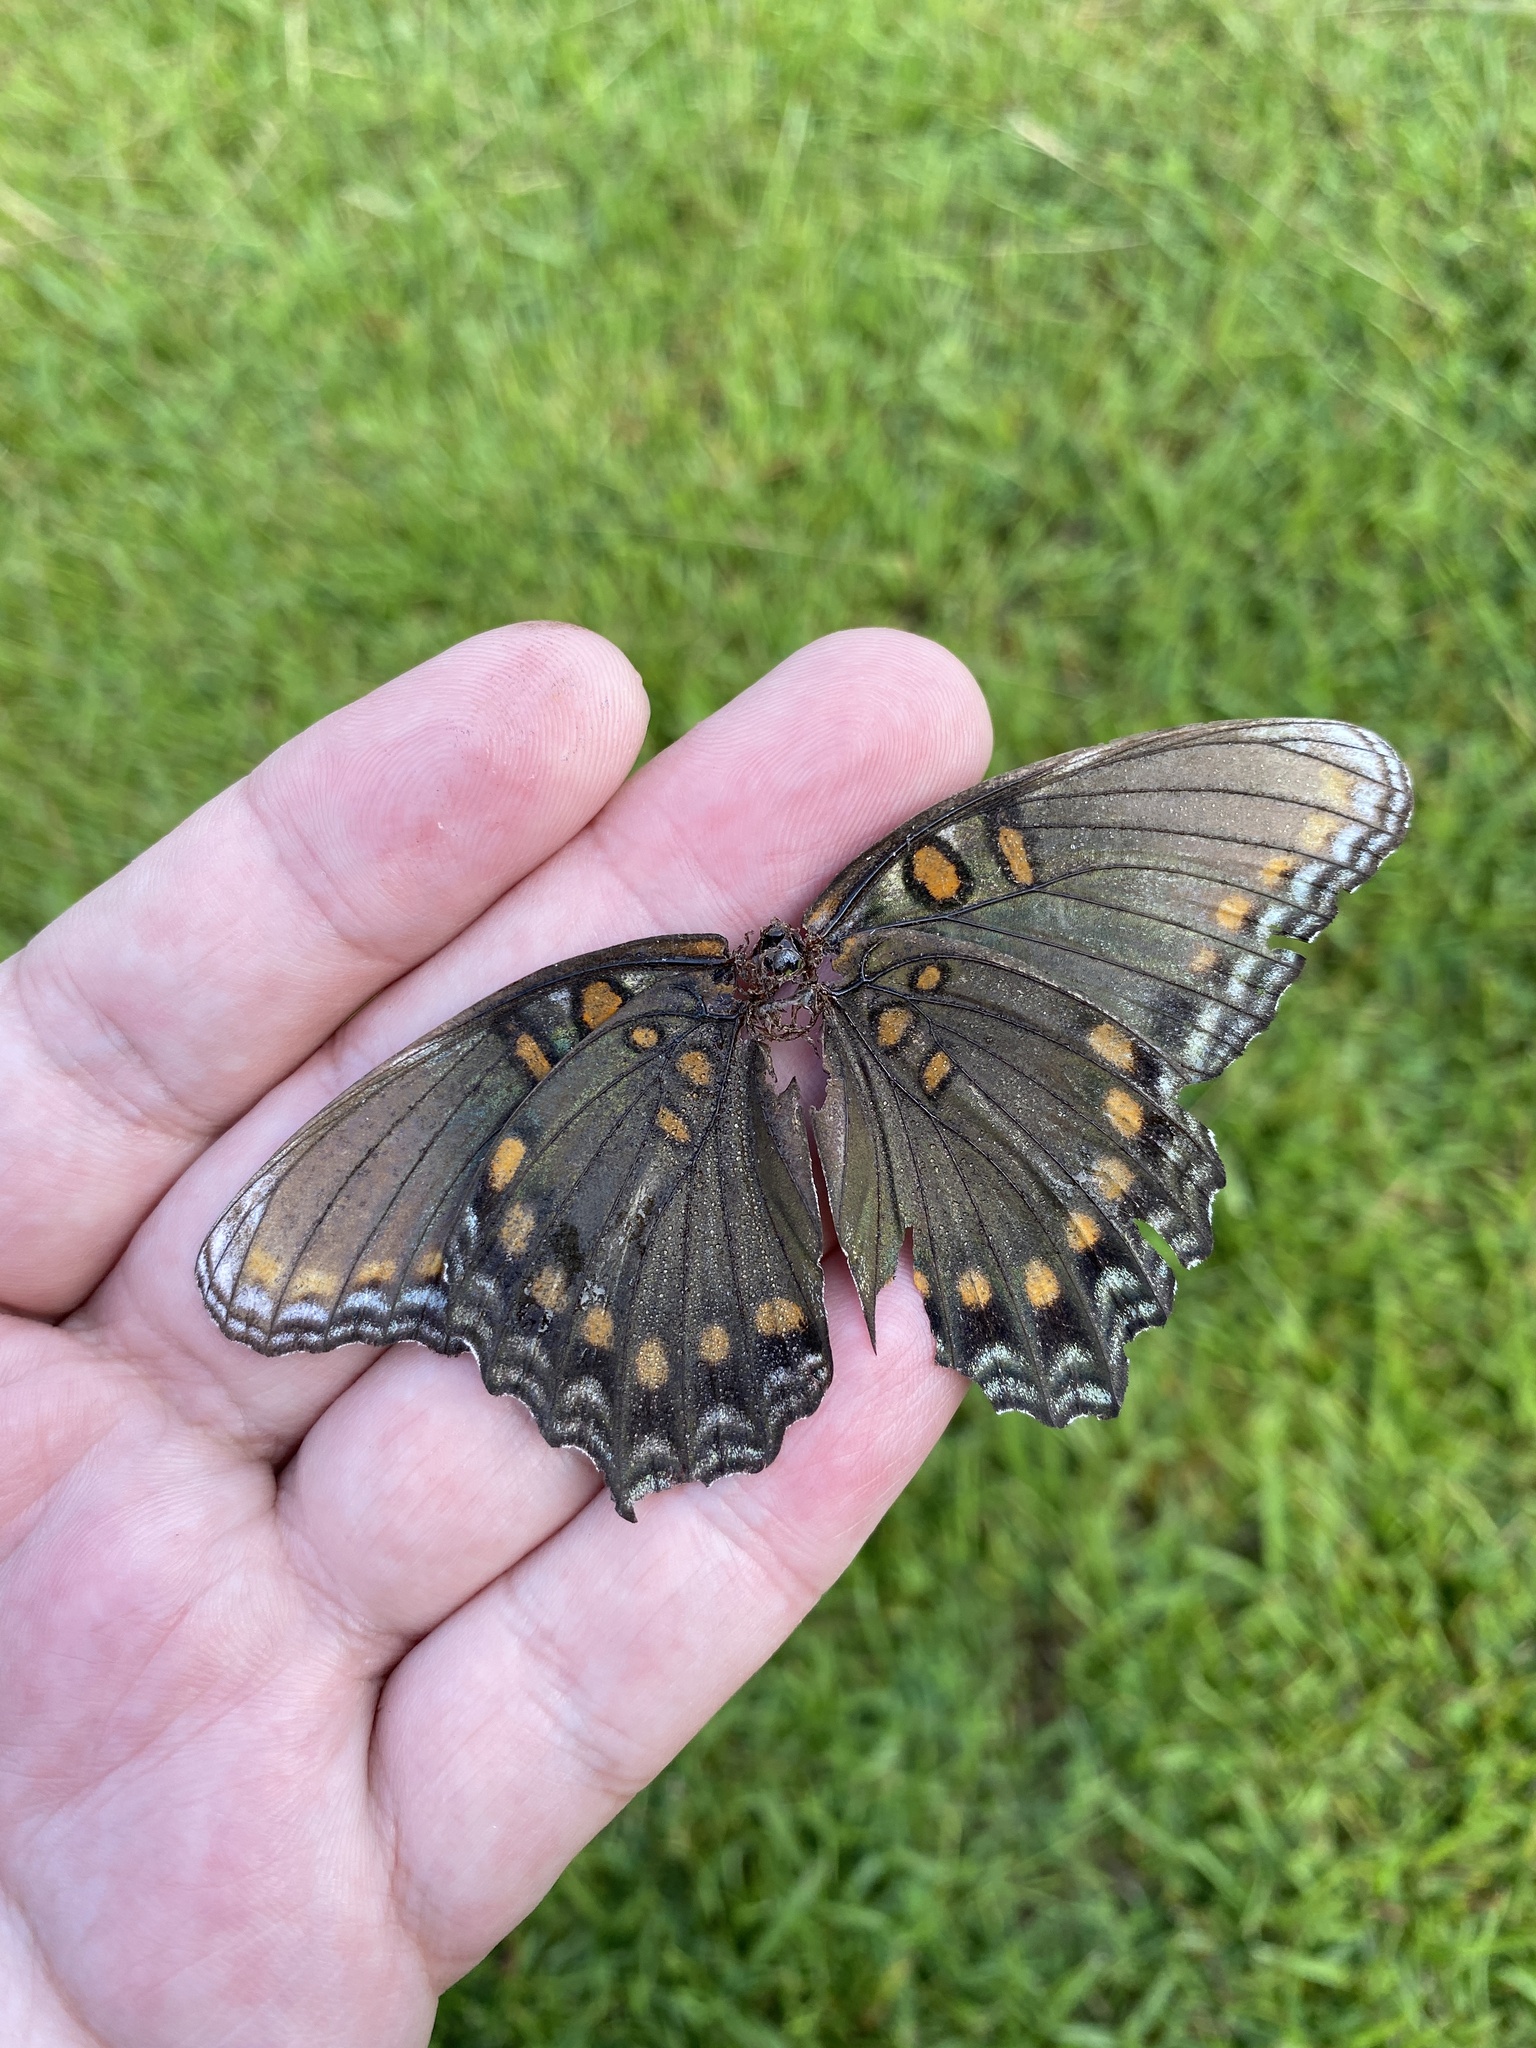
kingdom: Animalia
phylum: Arthropoda
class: Insecta
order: Lepidoptera
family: Nymphalidae
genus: Limenitis
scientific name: Limenitis astyanax
